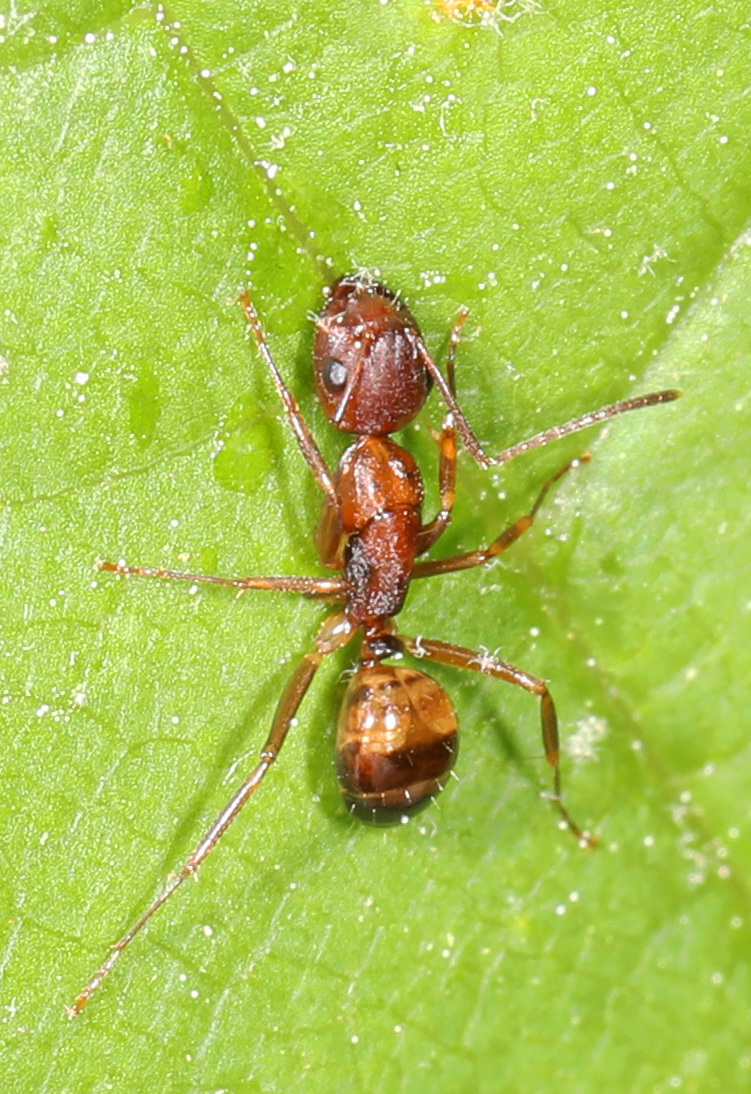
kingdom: Animalia
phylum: Arthropoda
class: Insecta
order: Hymenoptera
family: Formicidae
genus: Camponotus
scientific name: Camponotus subbarbatus
